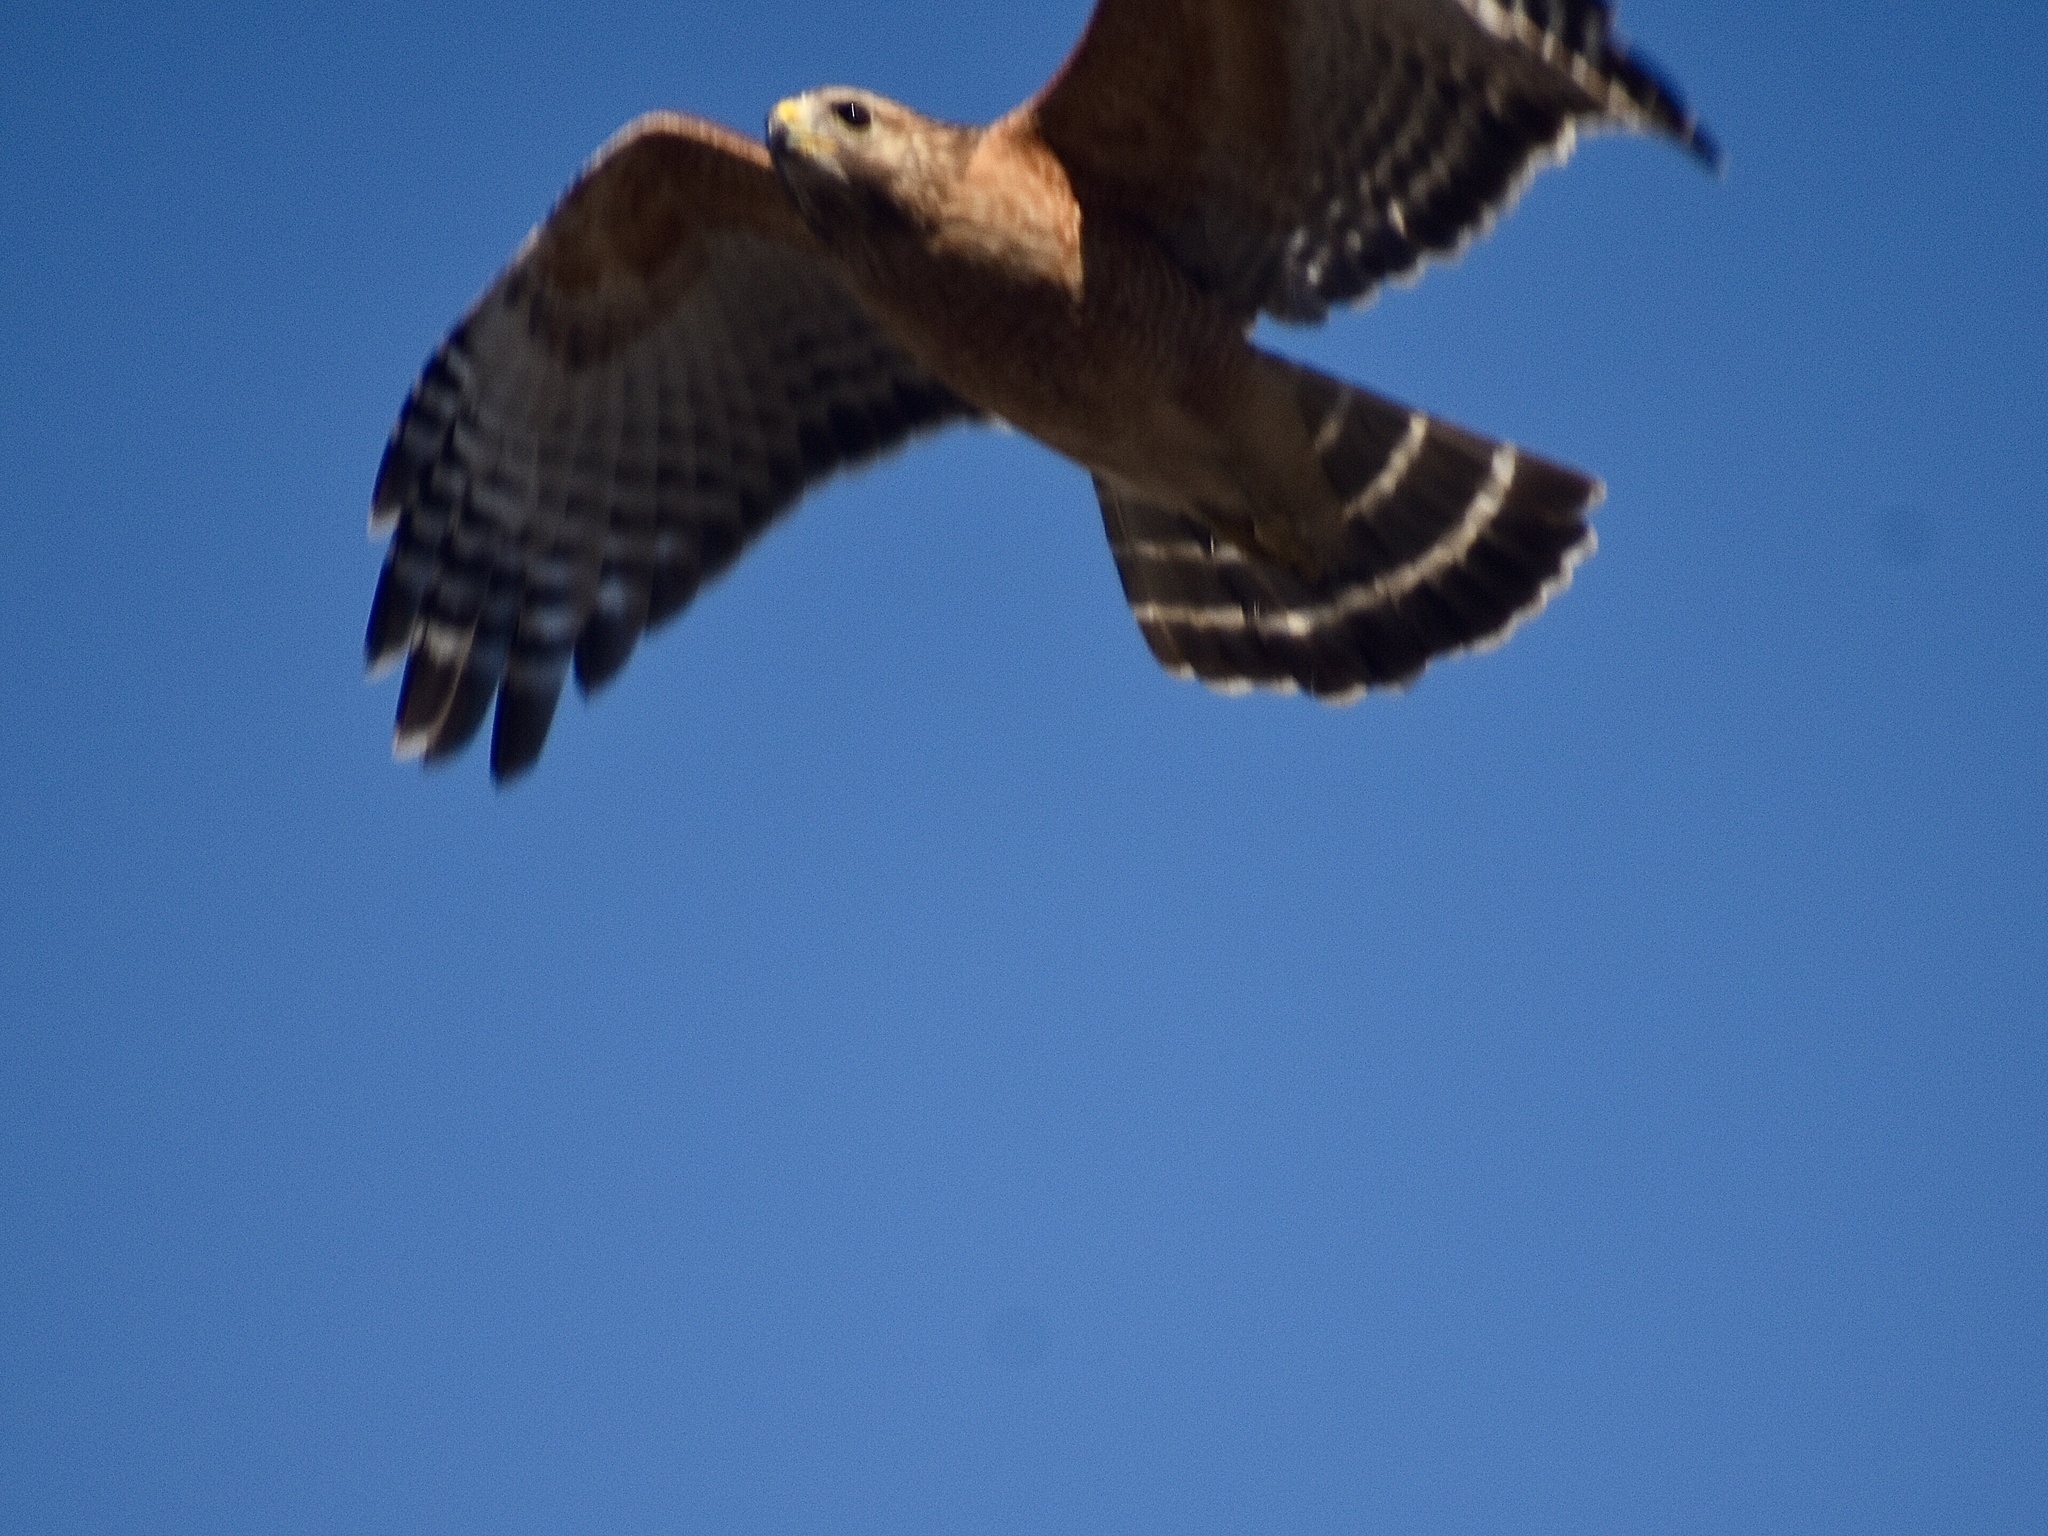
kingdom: Animalia
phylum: Chordata
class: Aves
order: Accipitriformes
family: Accipitridae
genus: Buteo
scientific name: Buteo lineatus
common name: Red-shouldered hawk
